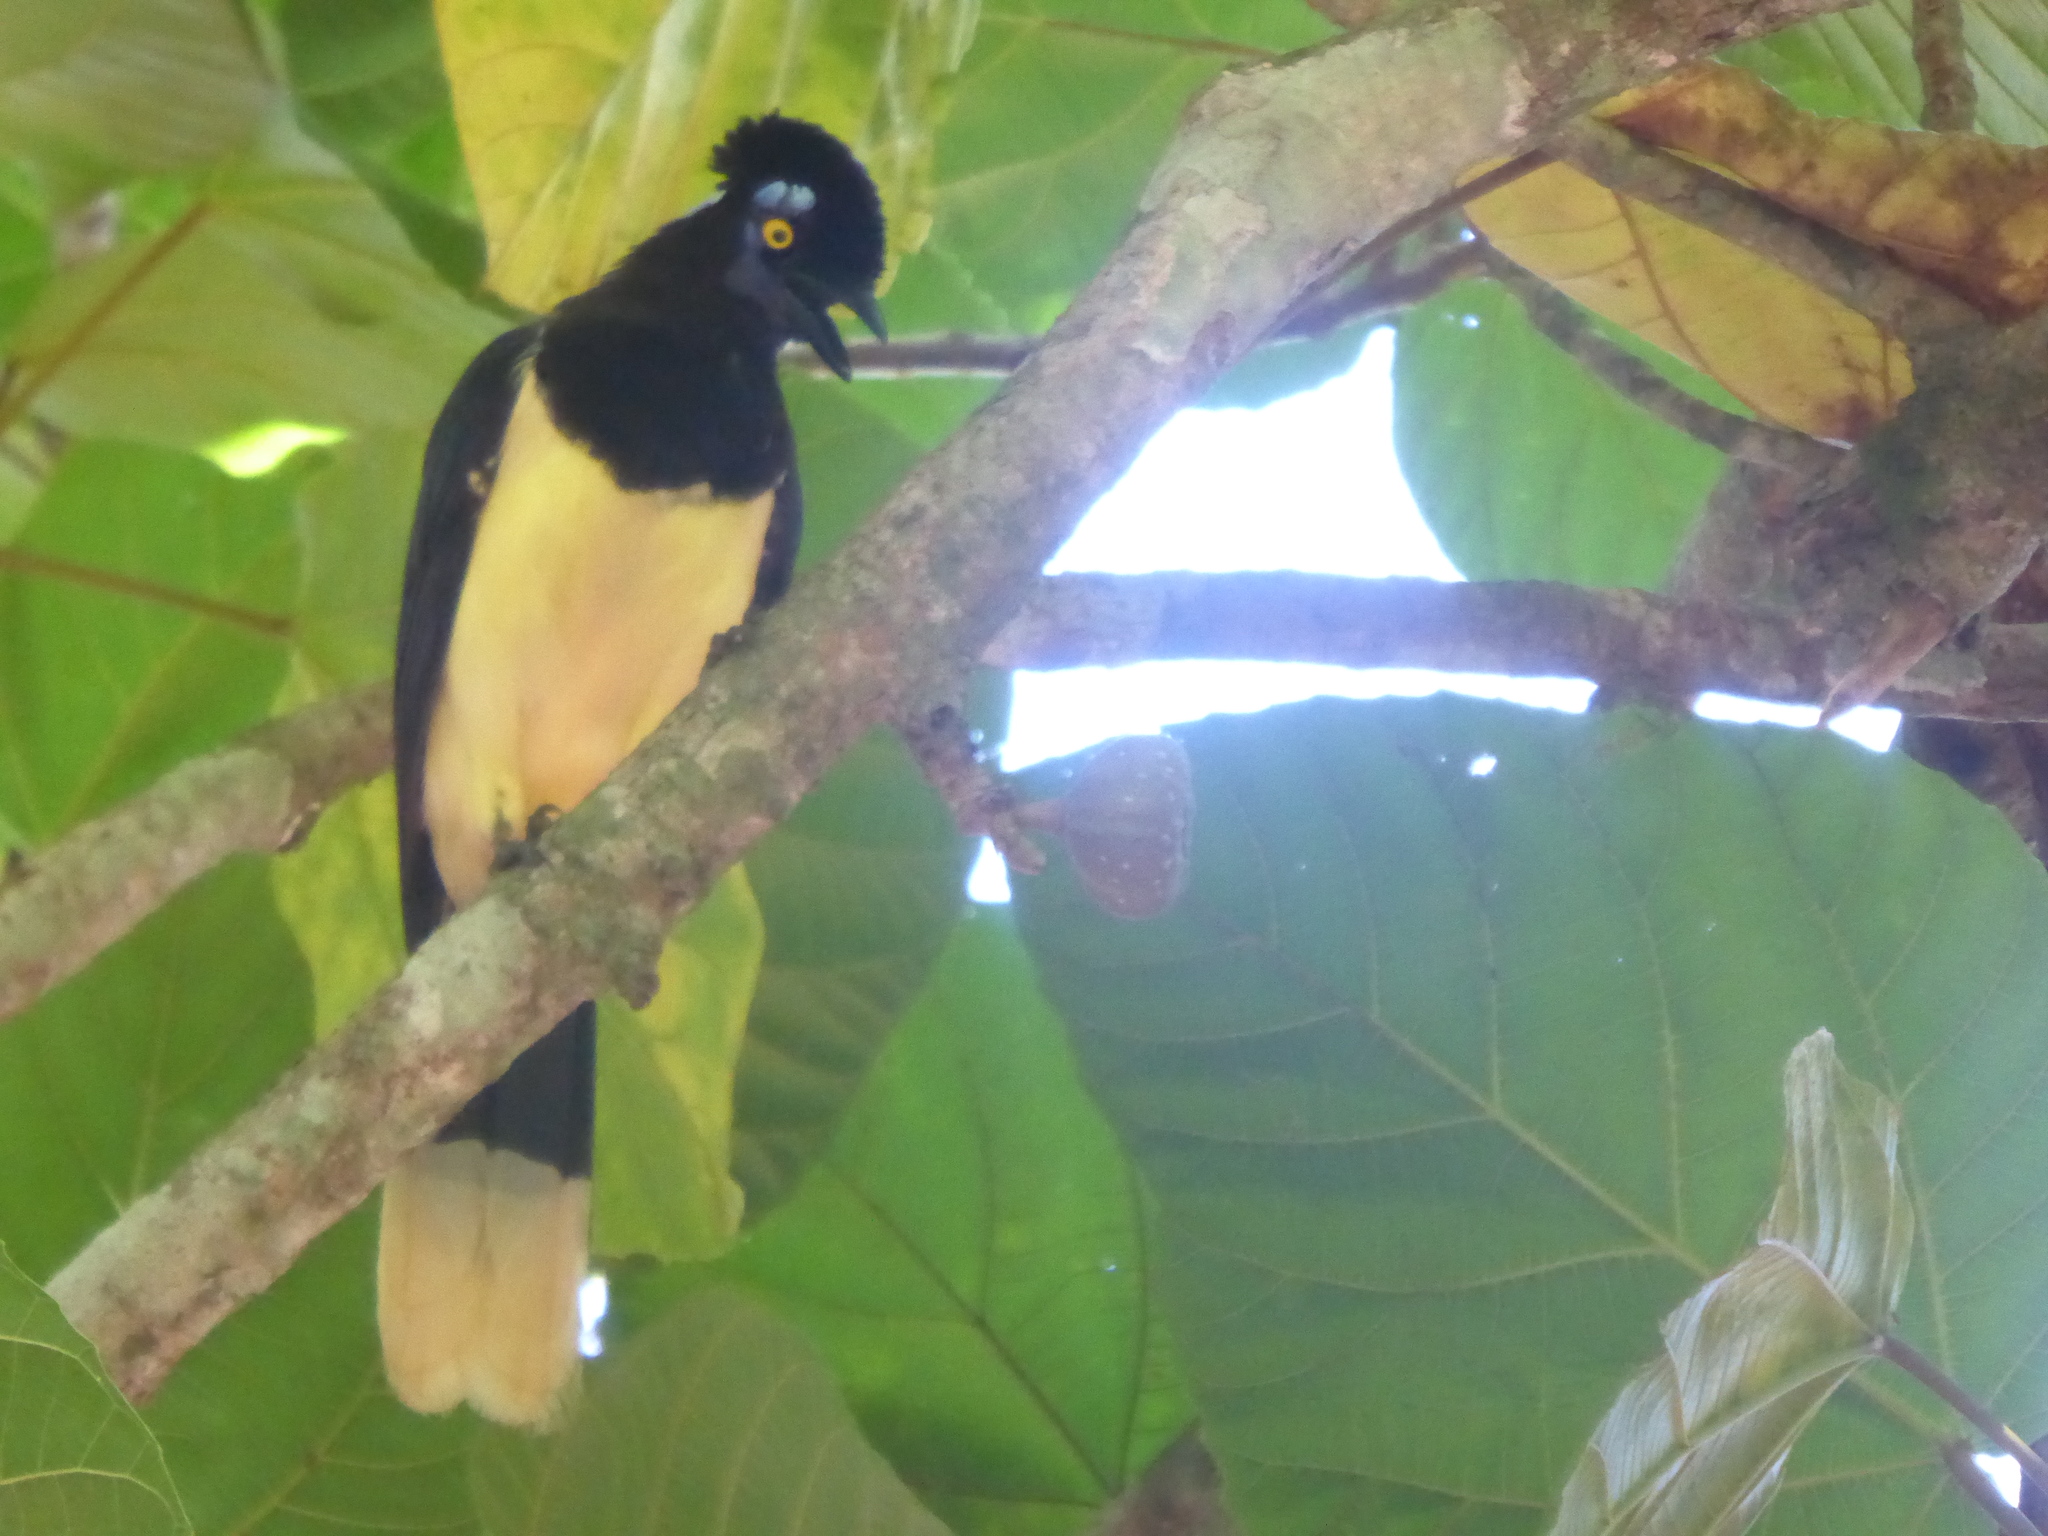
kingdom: Animalia
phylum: Chordata
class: Aves
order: Passeriformes
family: Corvidae
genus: Cyanocorax
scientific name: Cyanocorax chrysops
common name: Plush-crested jay
